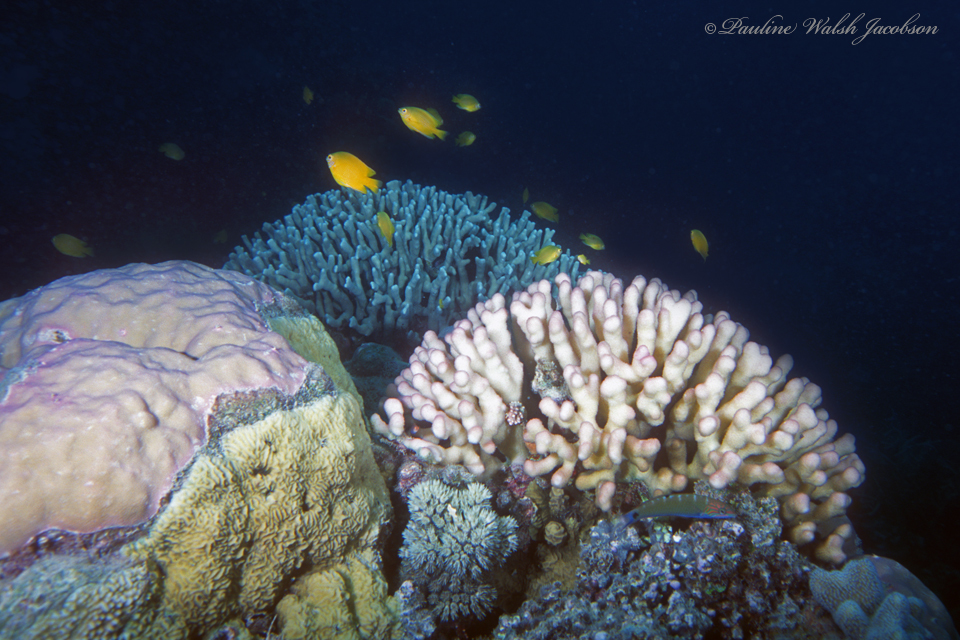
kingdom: Animalia
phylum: Chordata
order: Perciformes
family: Labridae
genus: Thalassoma
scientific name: Thalassoma lunare
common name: Blue wrasse
